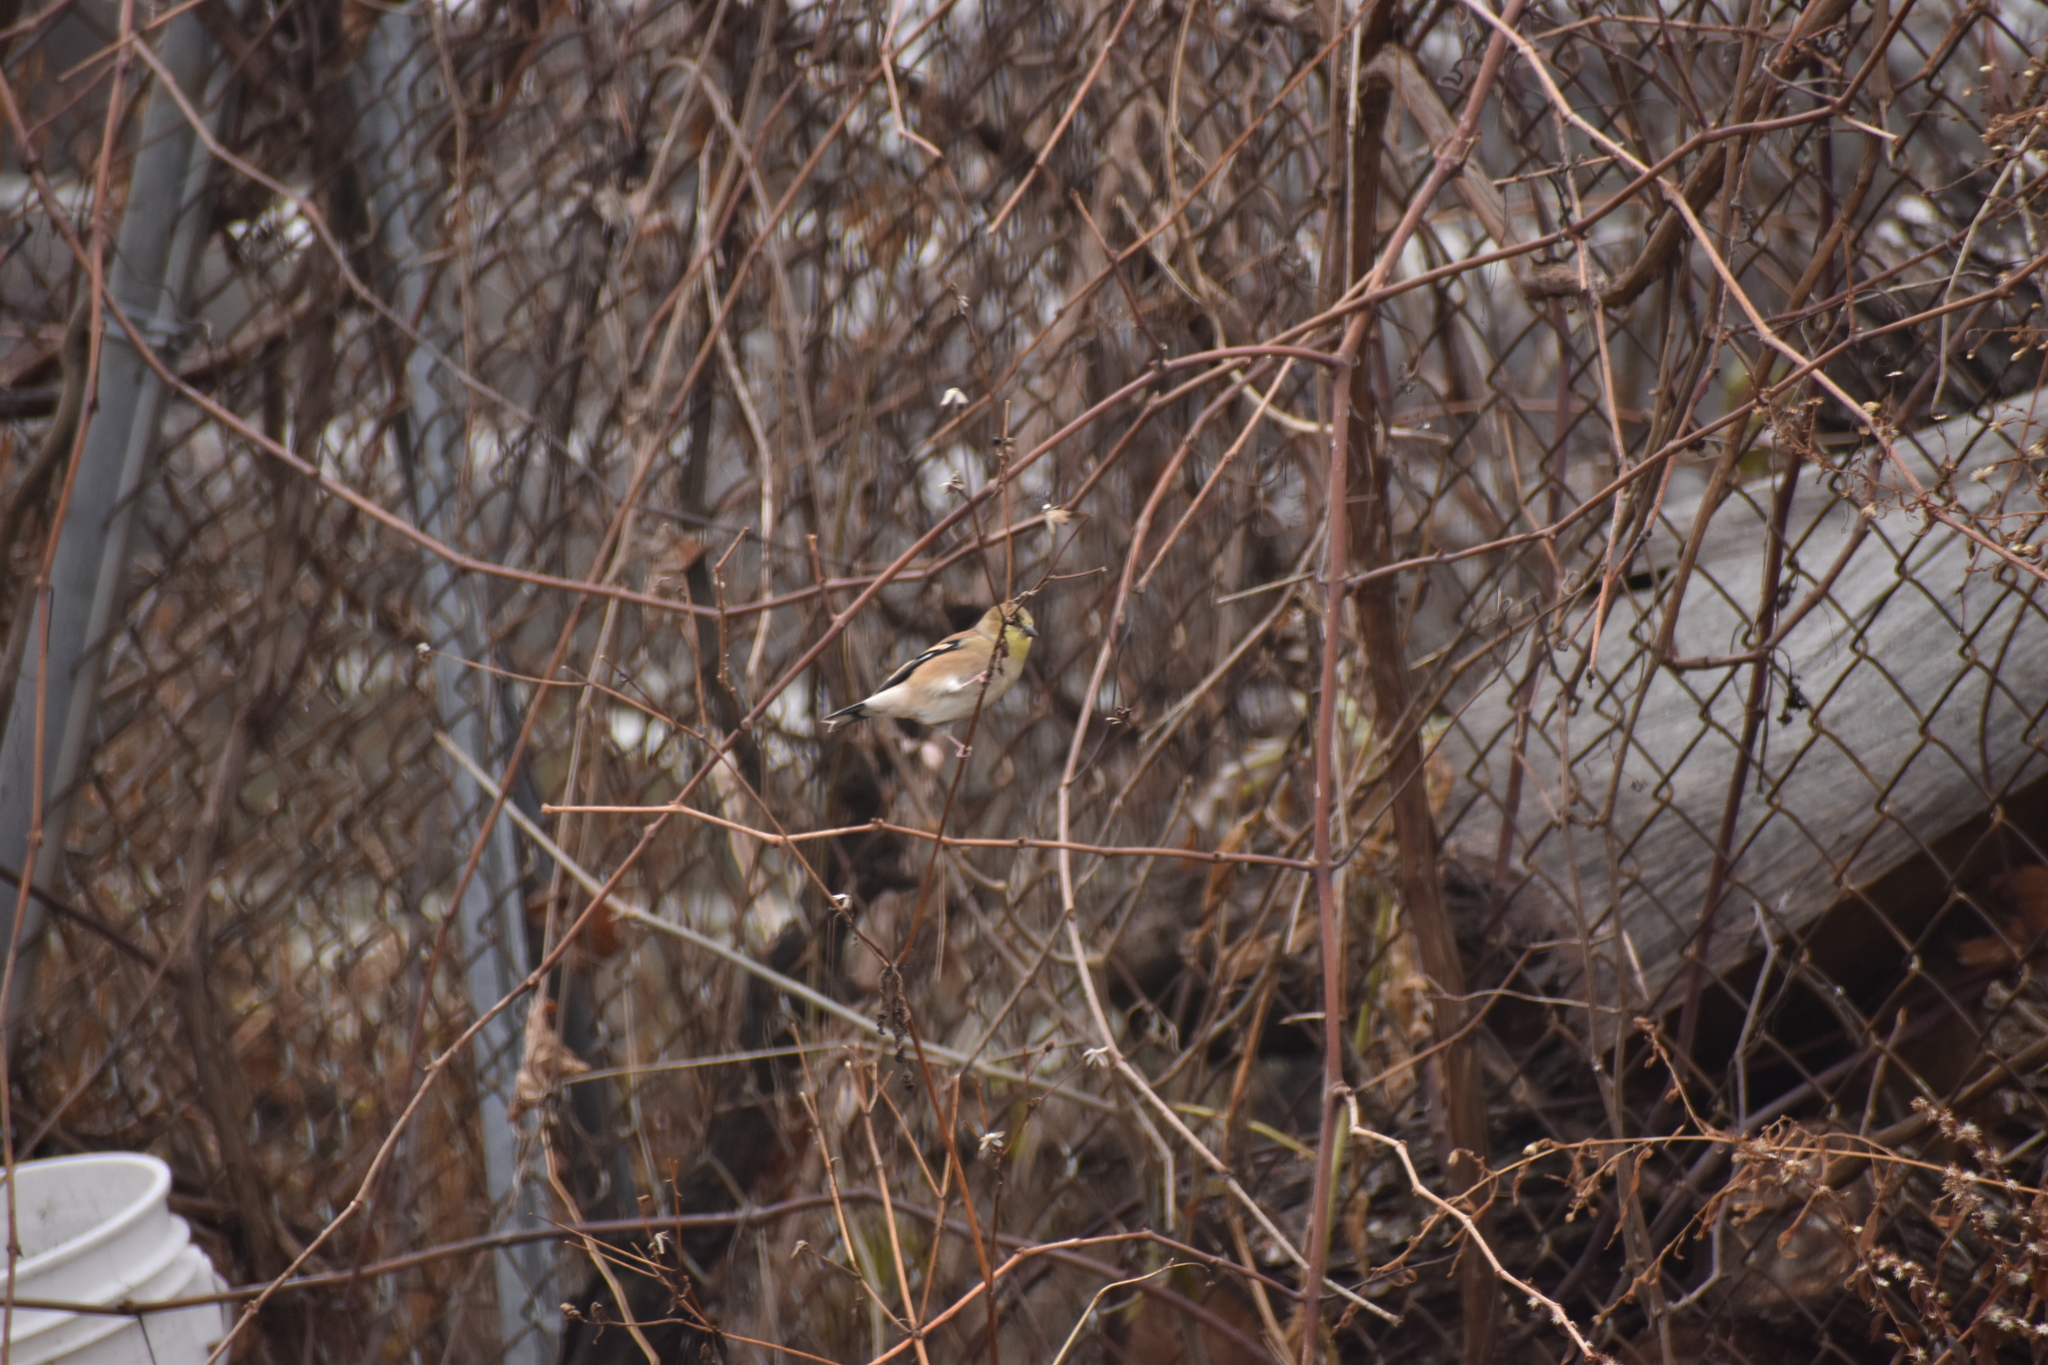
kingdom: Animalia
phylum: Chordata
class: Aves
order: Passeriformes
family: Fringillidae
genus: Spinus
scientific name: Spinus tristis
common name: American goldfinch
